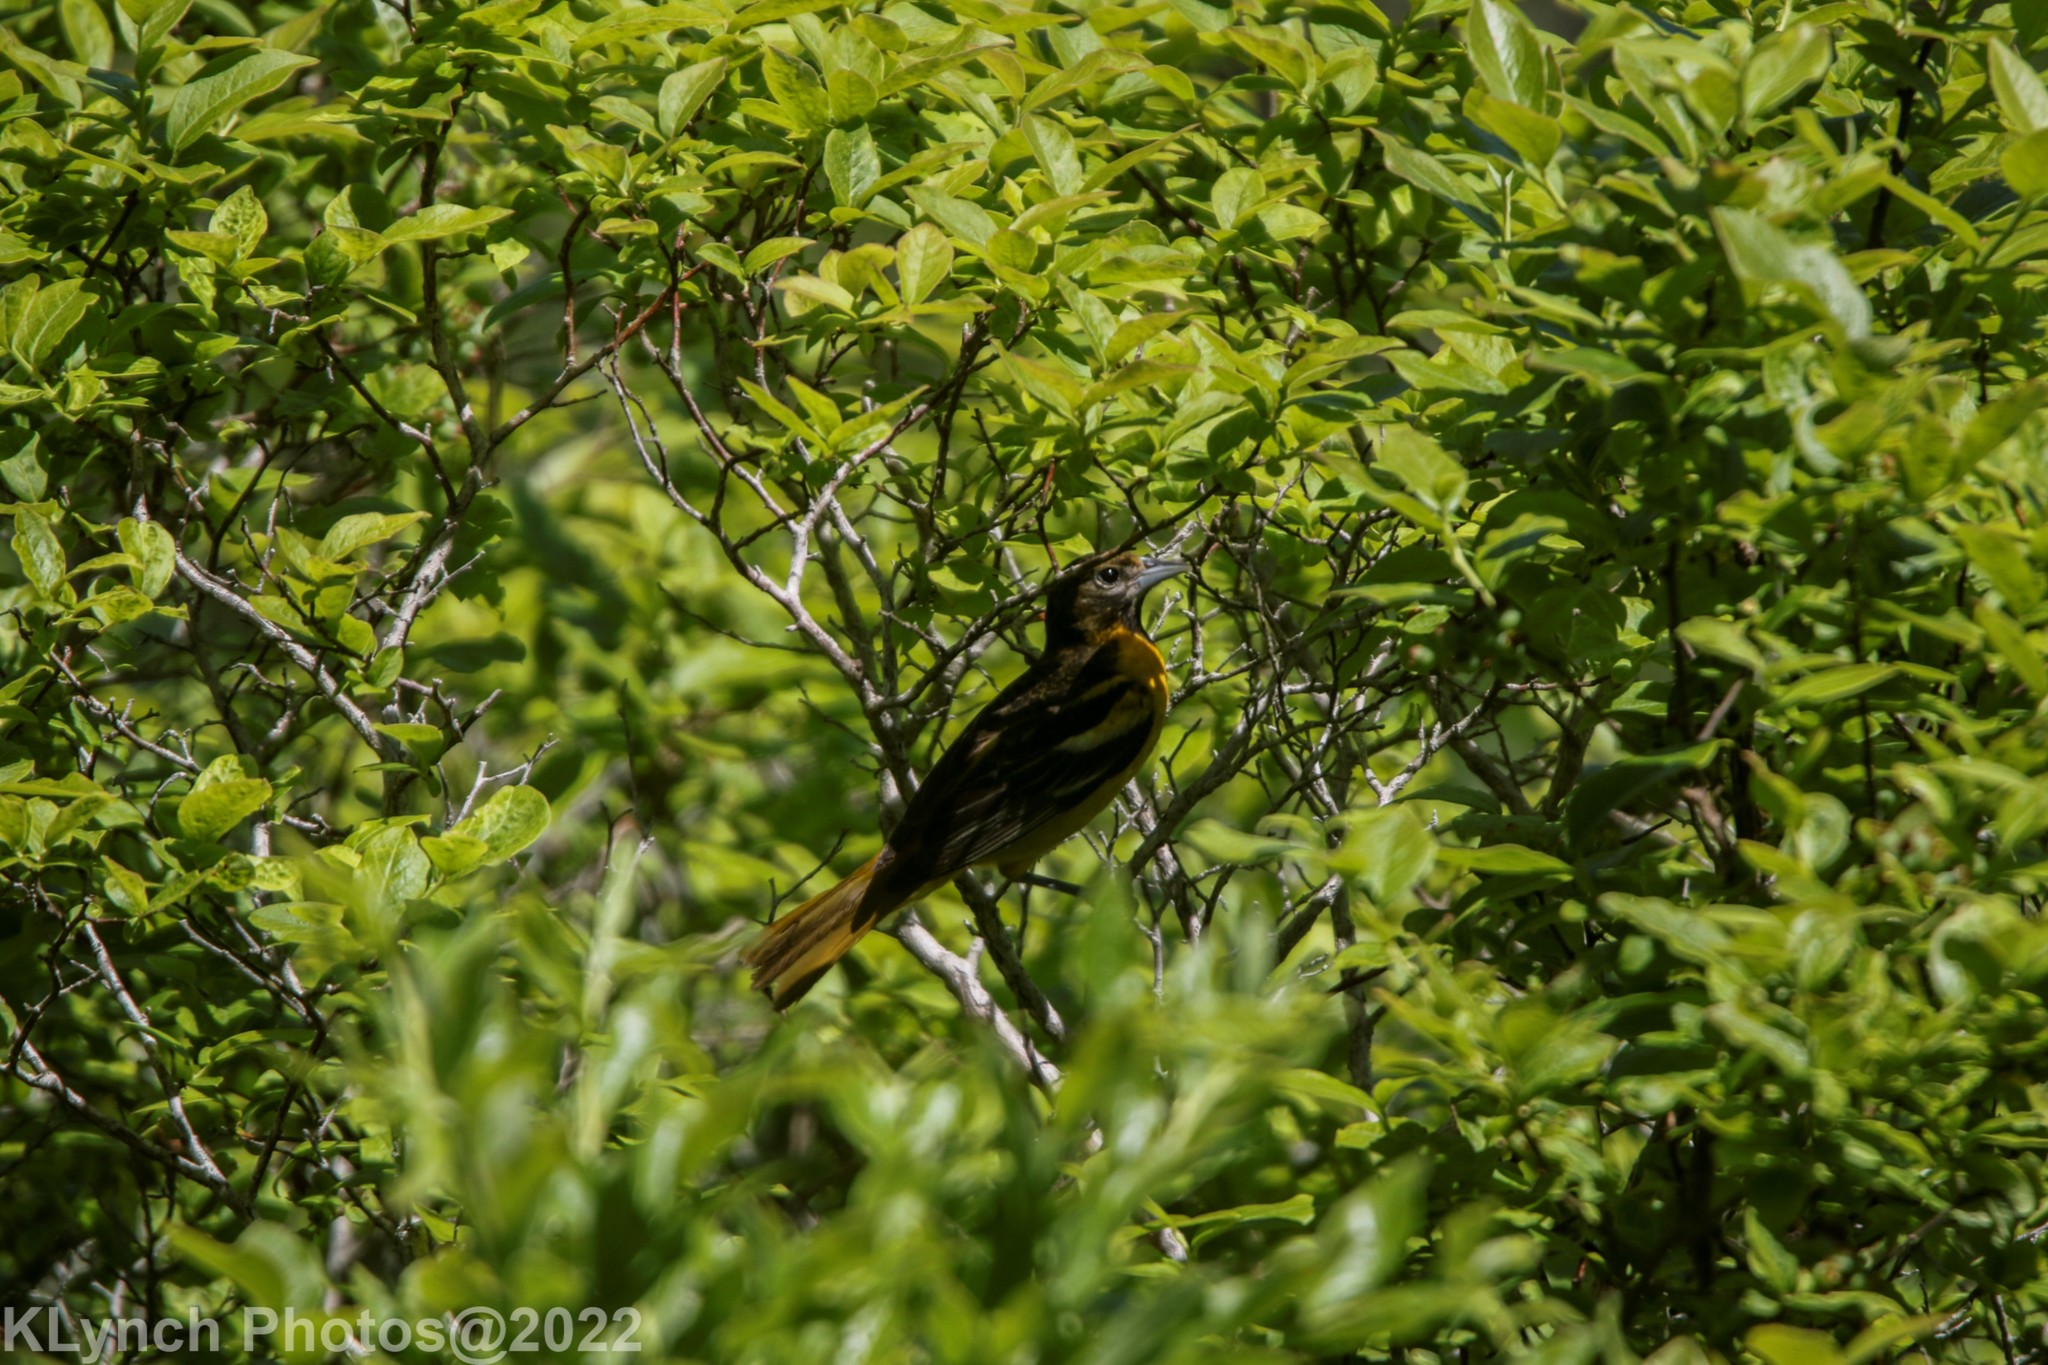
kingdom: Animalia
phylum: Chordata
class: Aves
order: Passeriformes
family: Icteridae
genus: Icterus
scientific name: Icterus galbula
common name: Baltimore oriole
